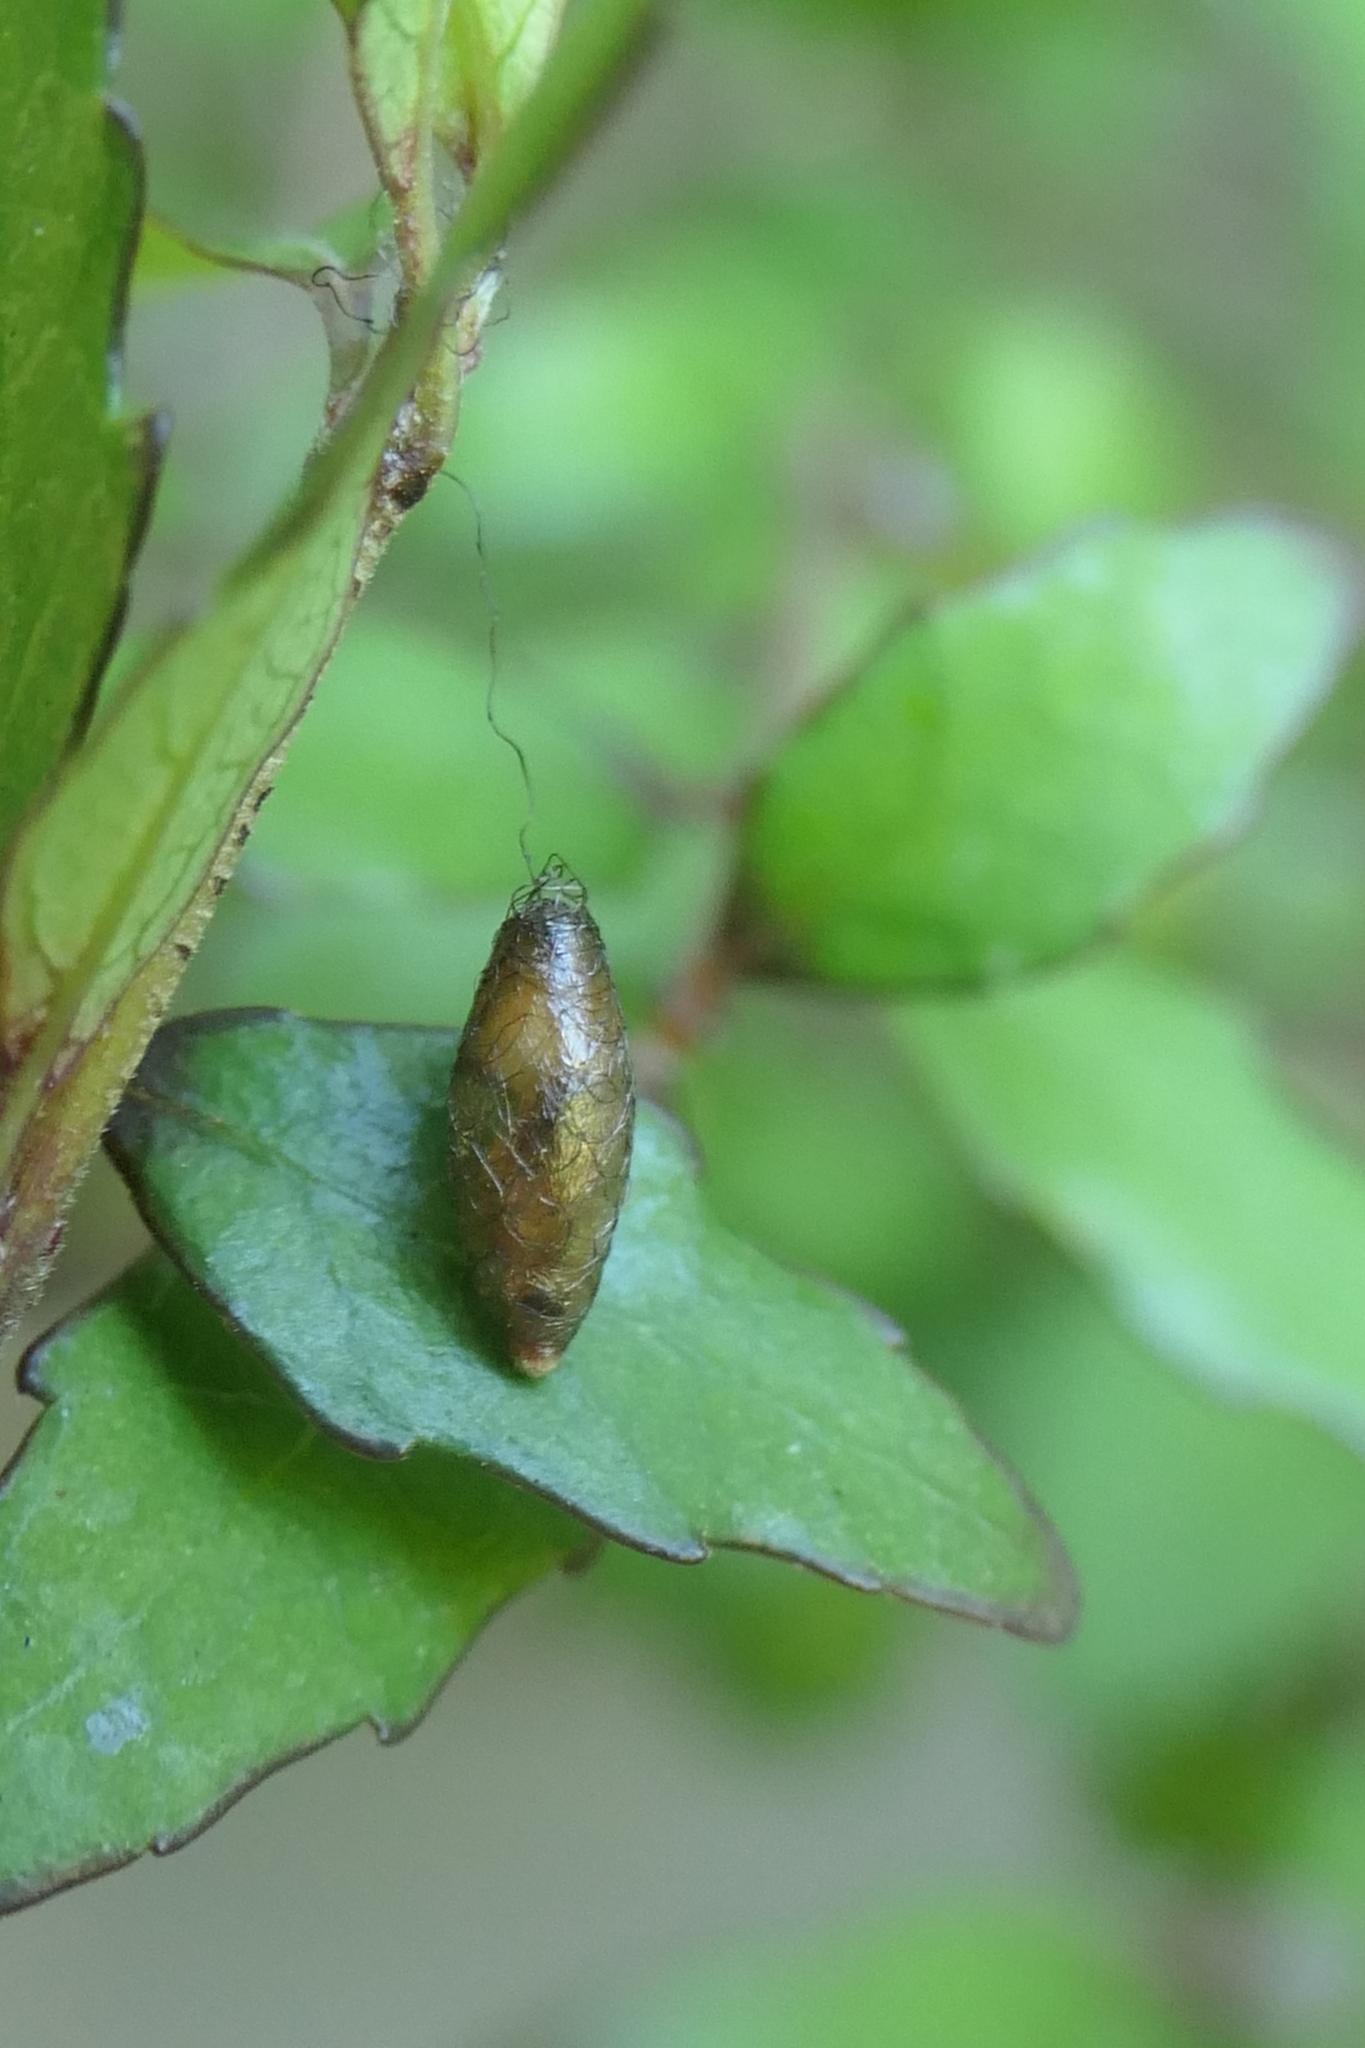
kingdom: Animalia
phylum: Arthropoda
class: Insecta
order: Hymenoptera
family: Braconidae
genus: Meteorus
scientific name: Meteorus pulchricornis
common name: Braconid wasp
